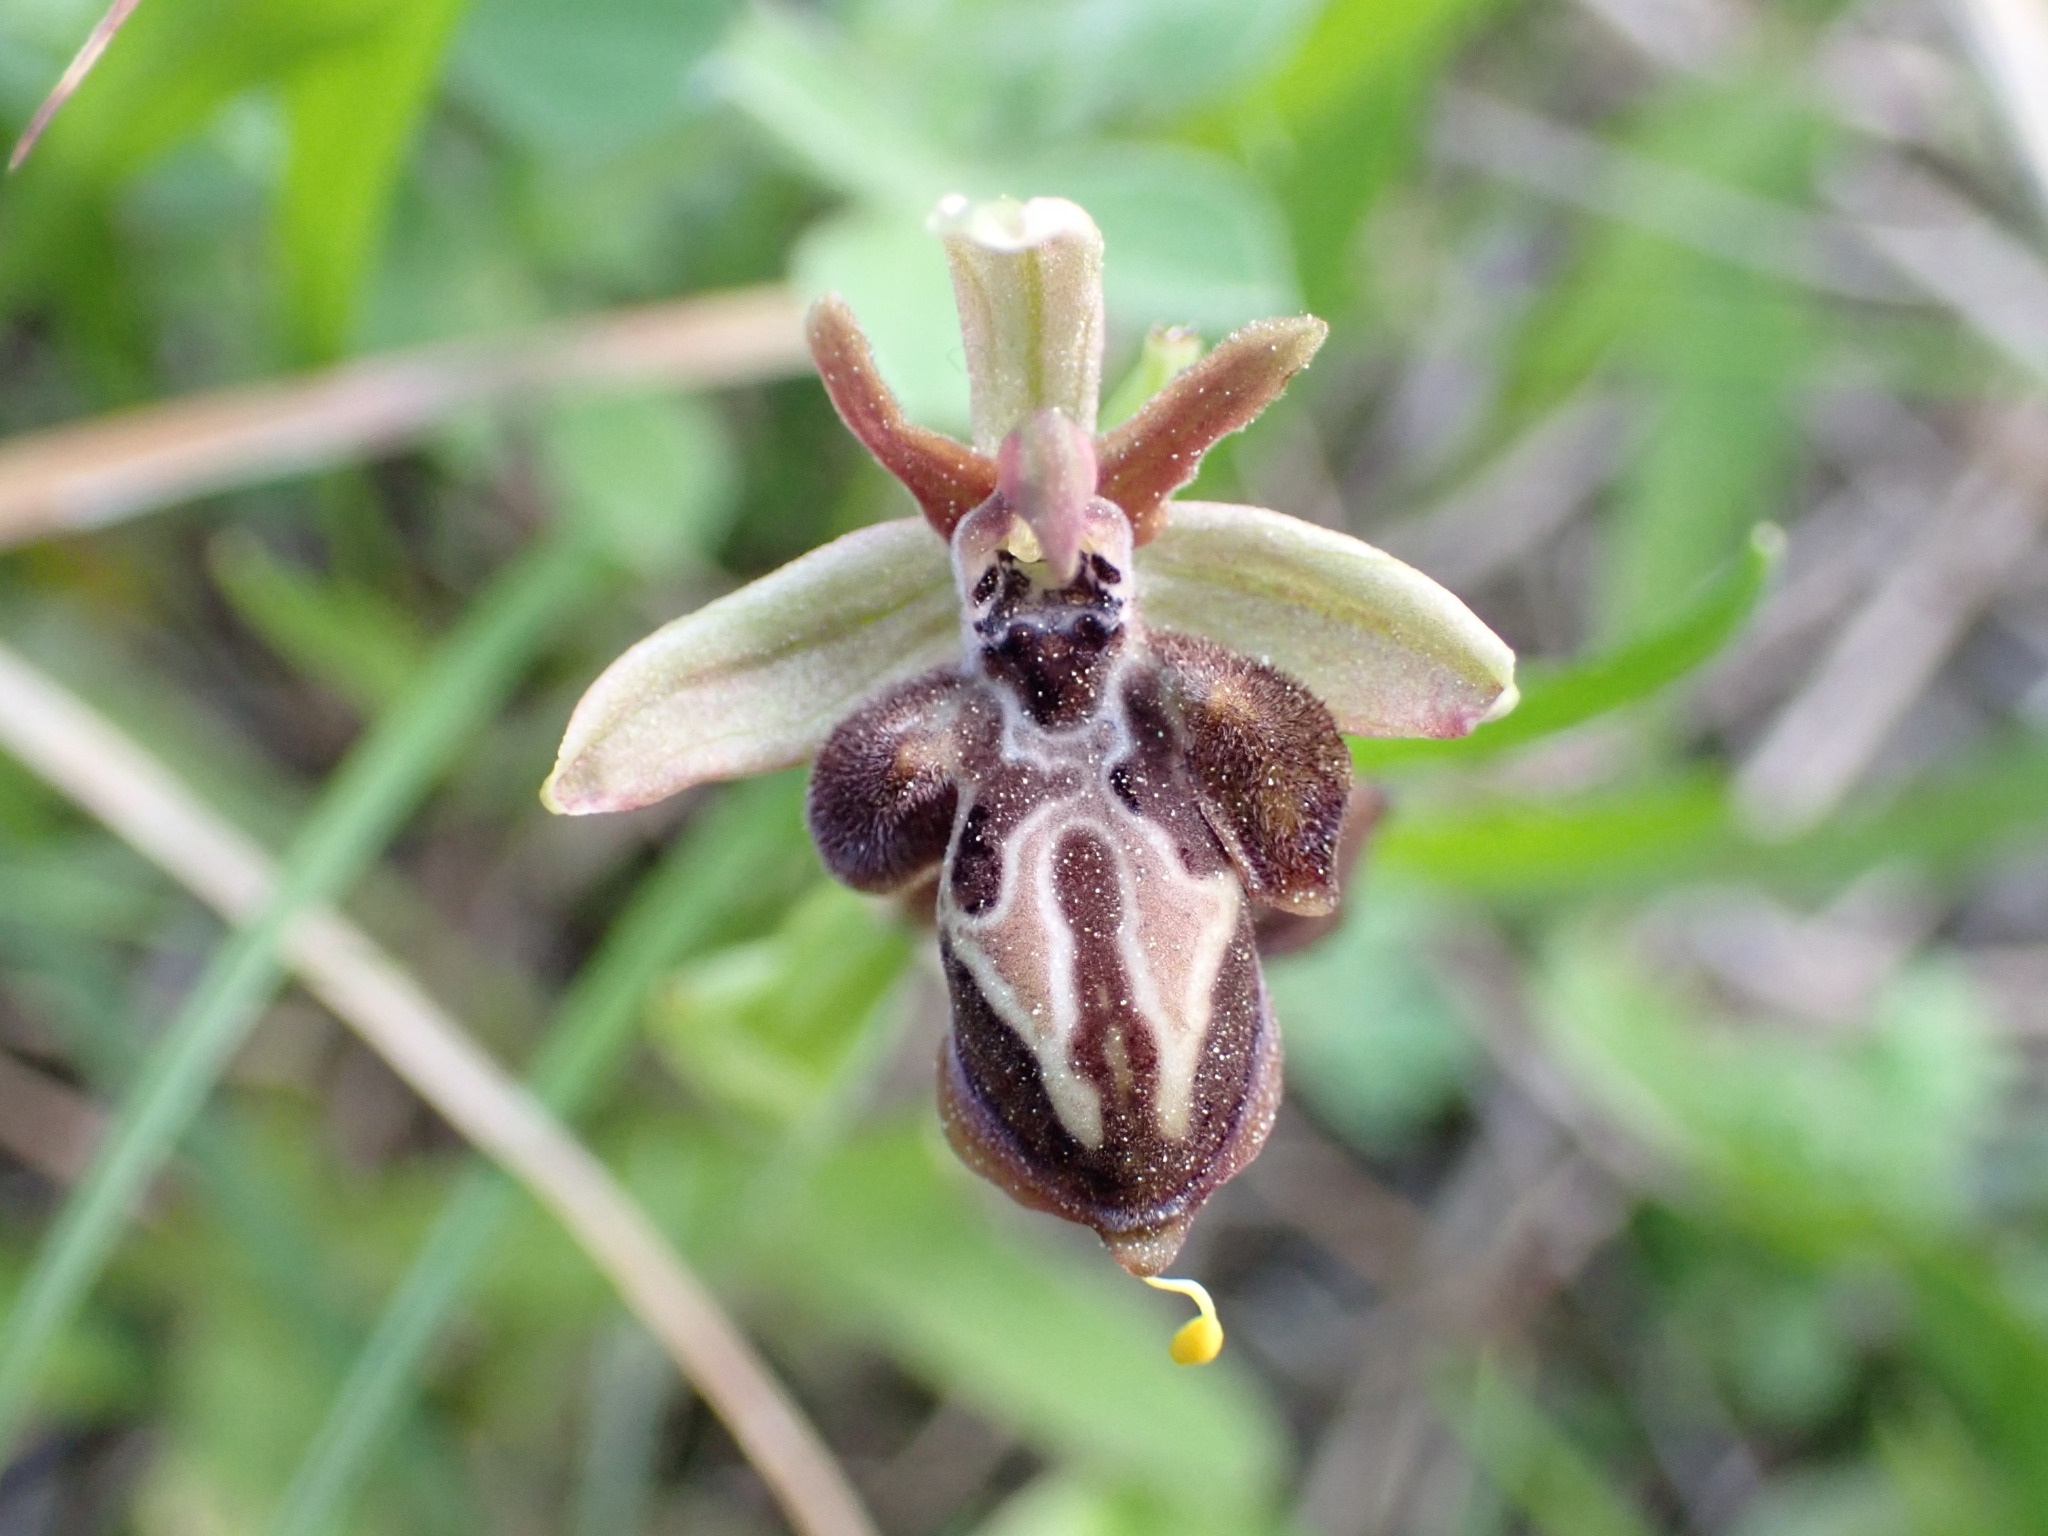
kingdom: Plantae
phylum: Tracheophyta
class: Liliopsida
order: Asparagales
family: Orchidaceae
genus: Ophrys
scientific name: Ophrys cretica
